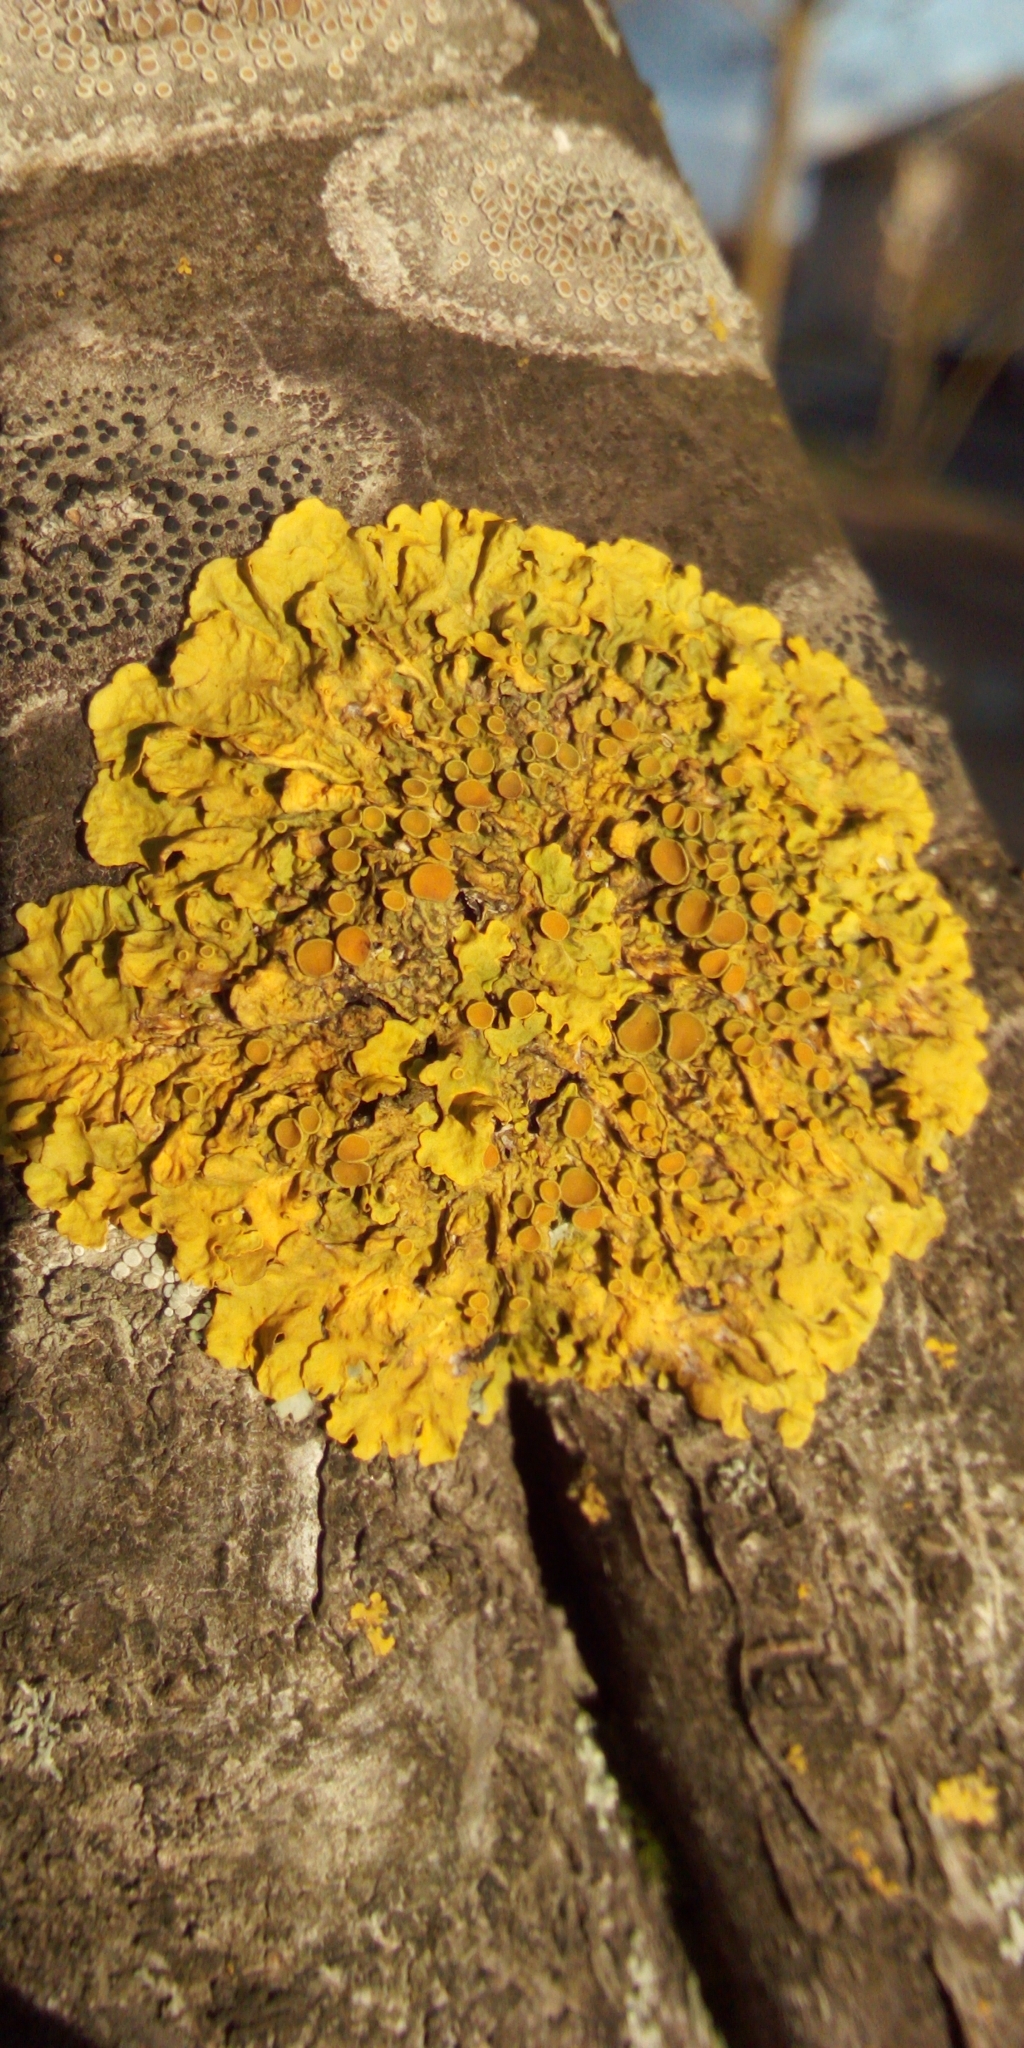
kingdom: Fungi
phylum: Ascomycota
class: Lecanoromycetes
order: Teloschistales
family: Teloschistaceae
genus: Xanthoria
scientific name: Xanthoria parietina
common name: Common orange lichen
